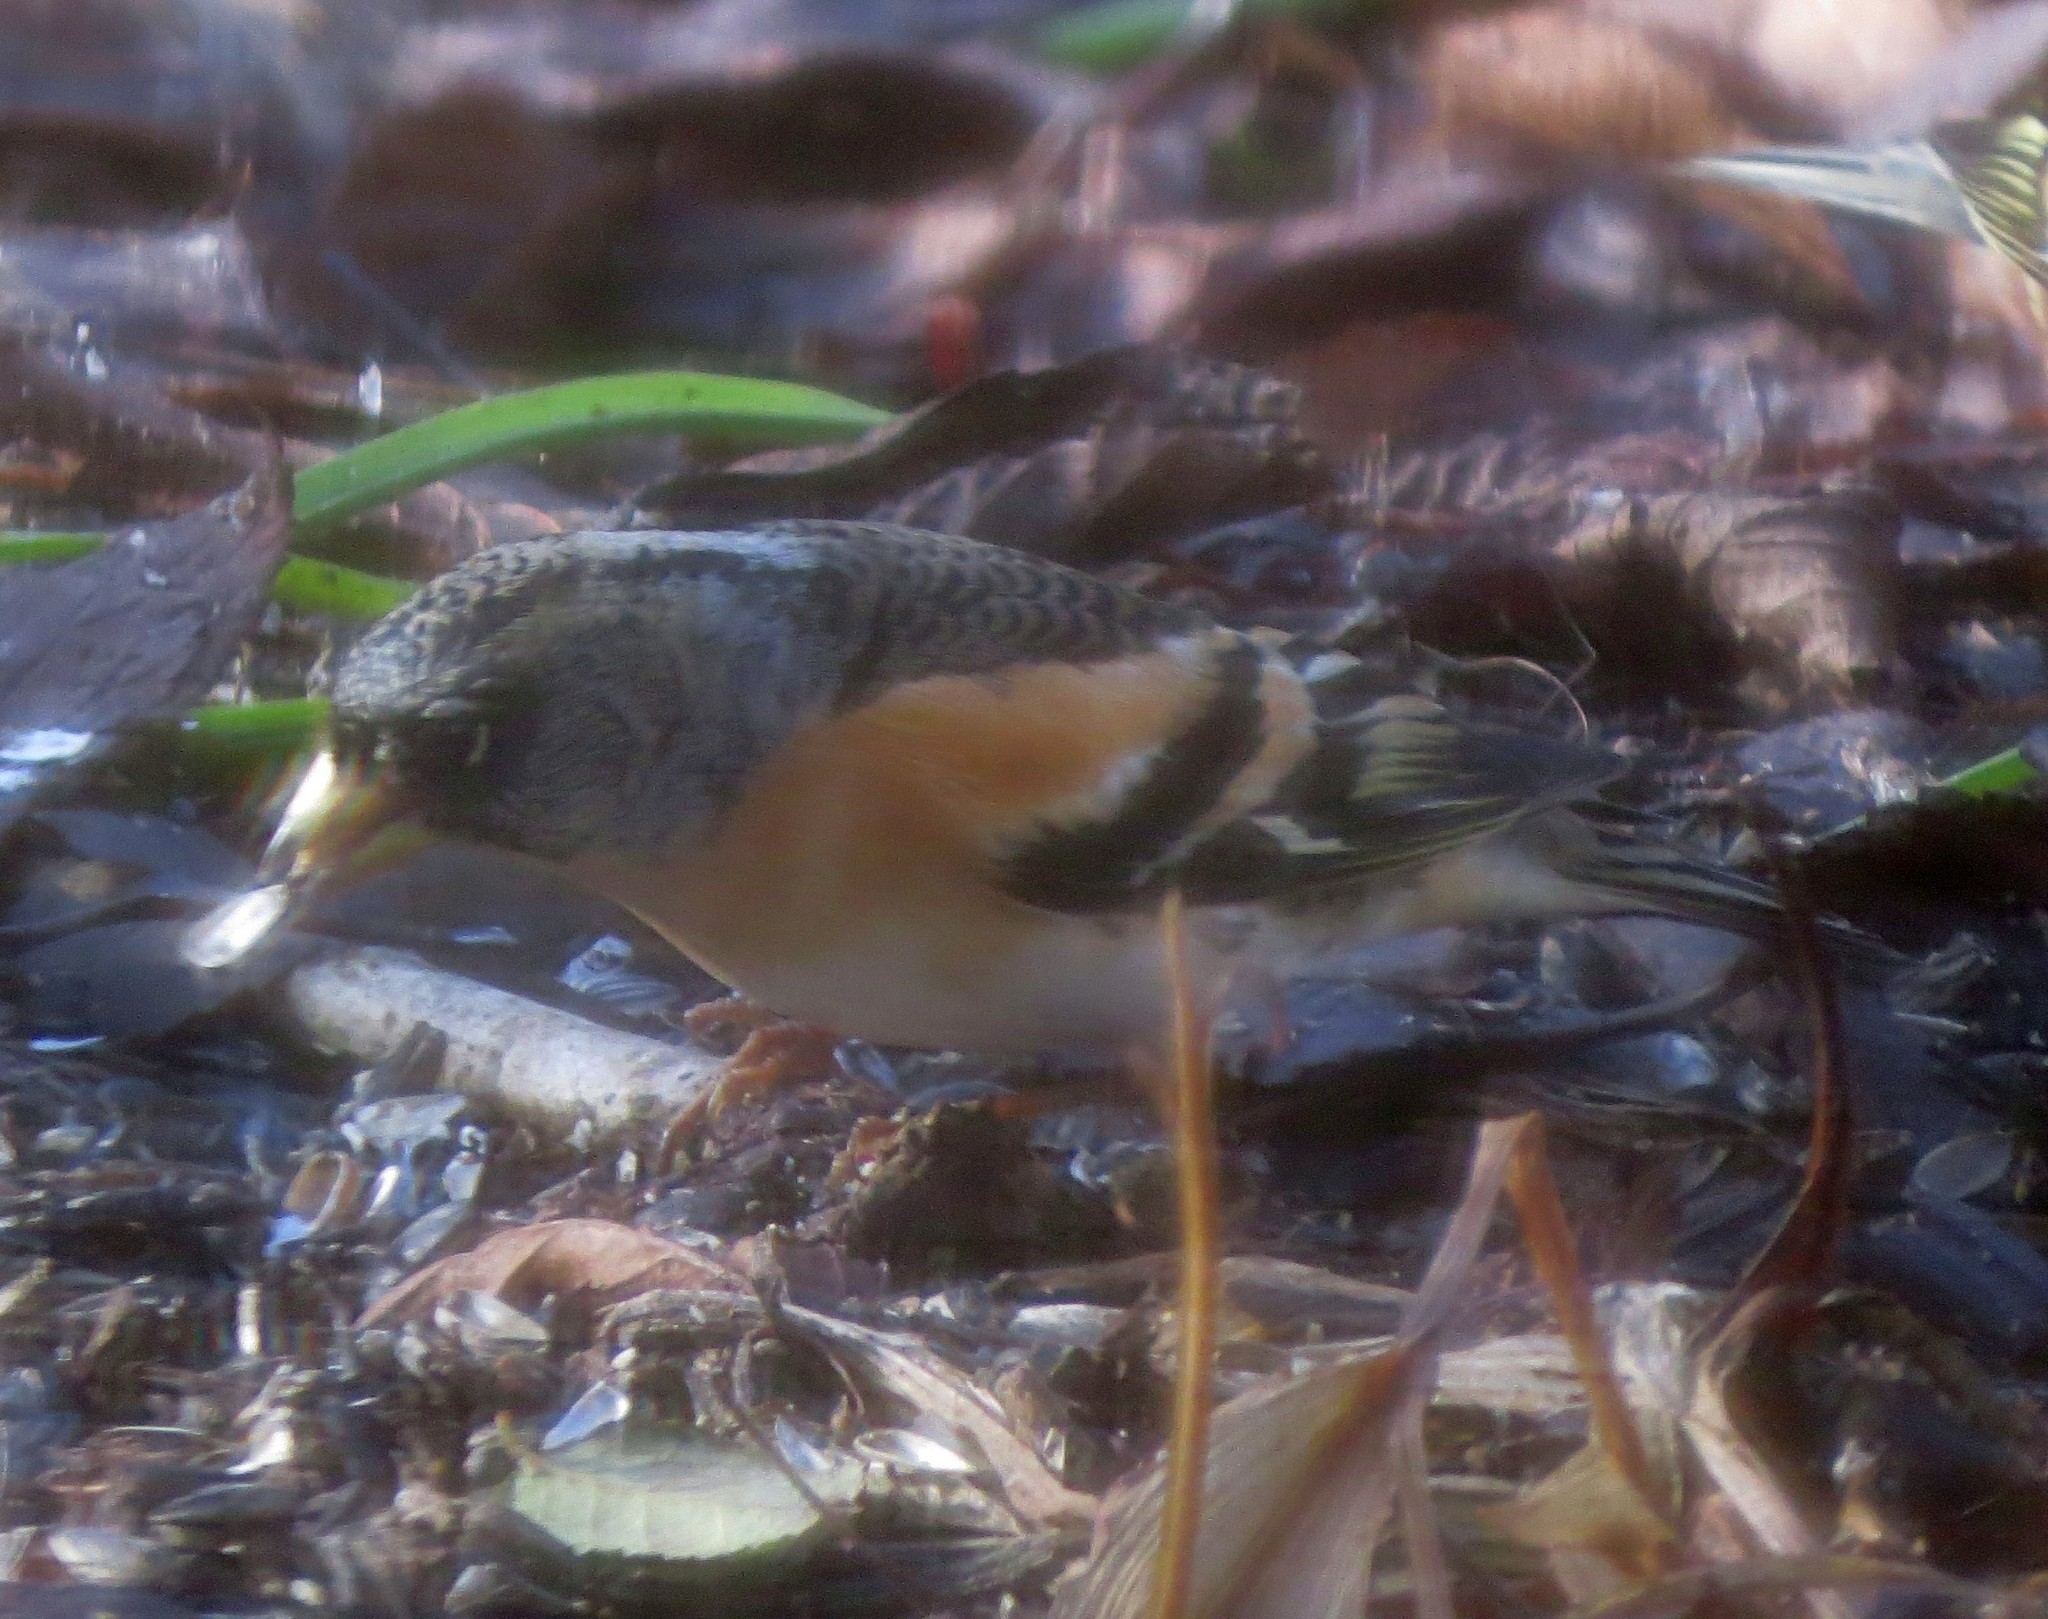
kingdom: Animalia
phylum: Chordata
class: Aves
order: Passeriformes
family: Fringillidae
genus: Fringilla
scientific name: Fringilla montifringilla
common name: Brambling
